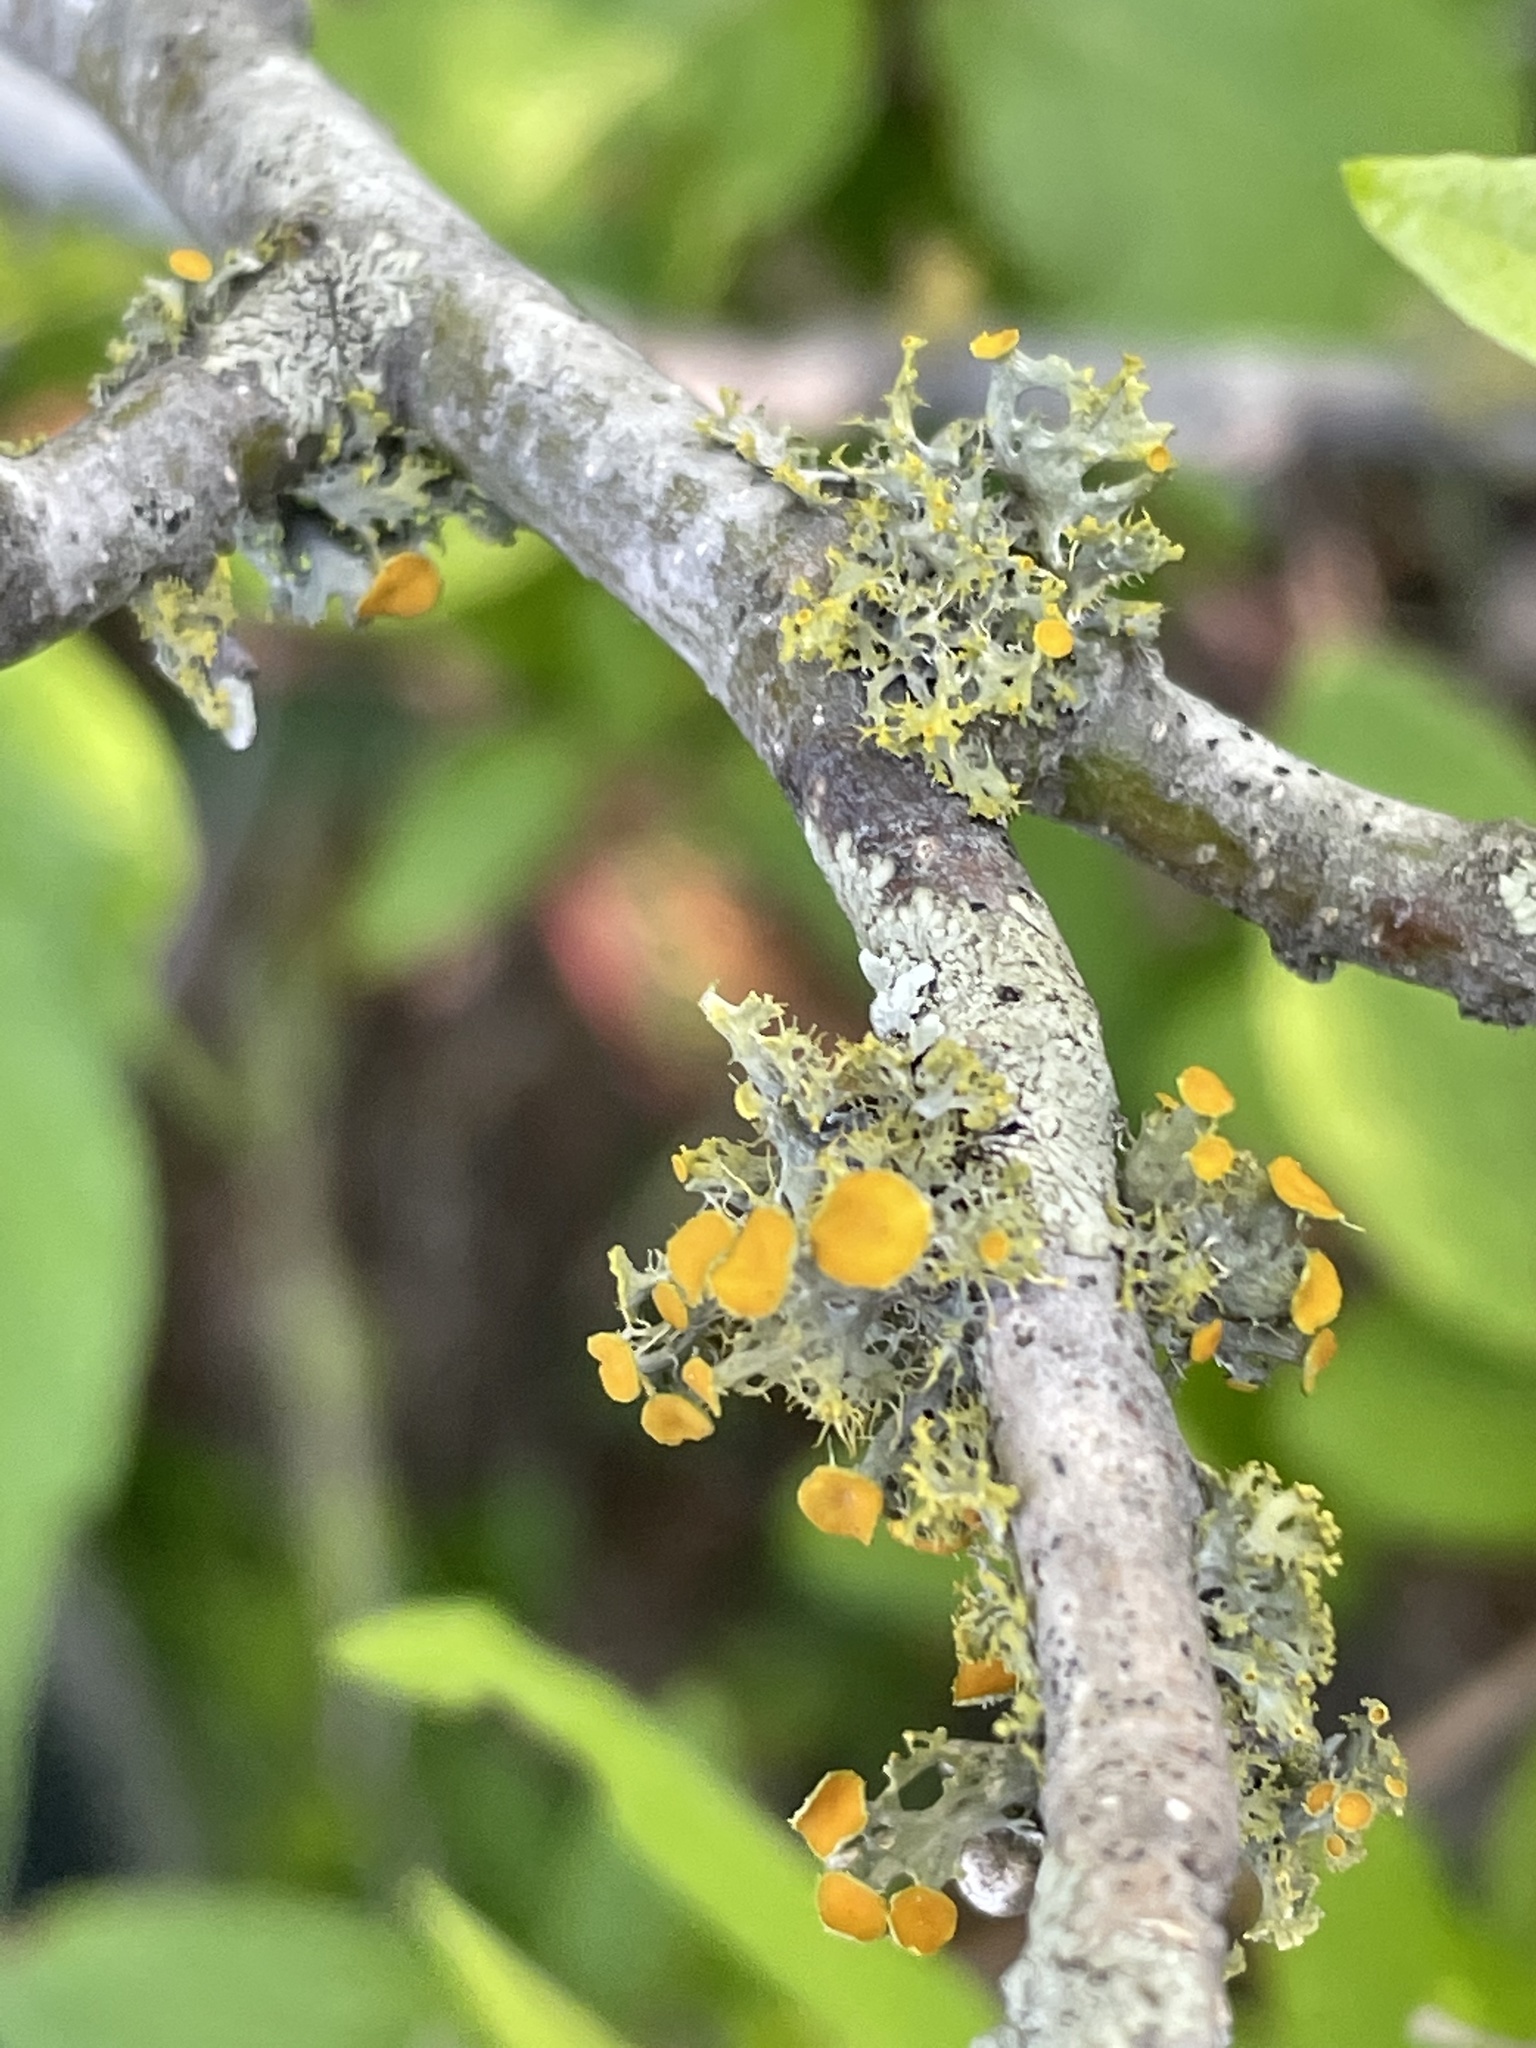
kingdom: Fungi
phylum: Ascomycota
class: Lecanoromycetes
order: Teloschistales
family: Teloschistaceae
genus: Niorma
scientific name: Niorma chrysophthalma
